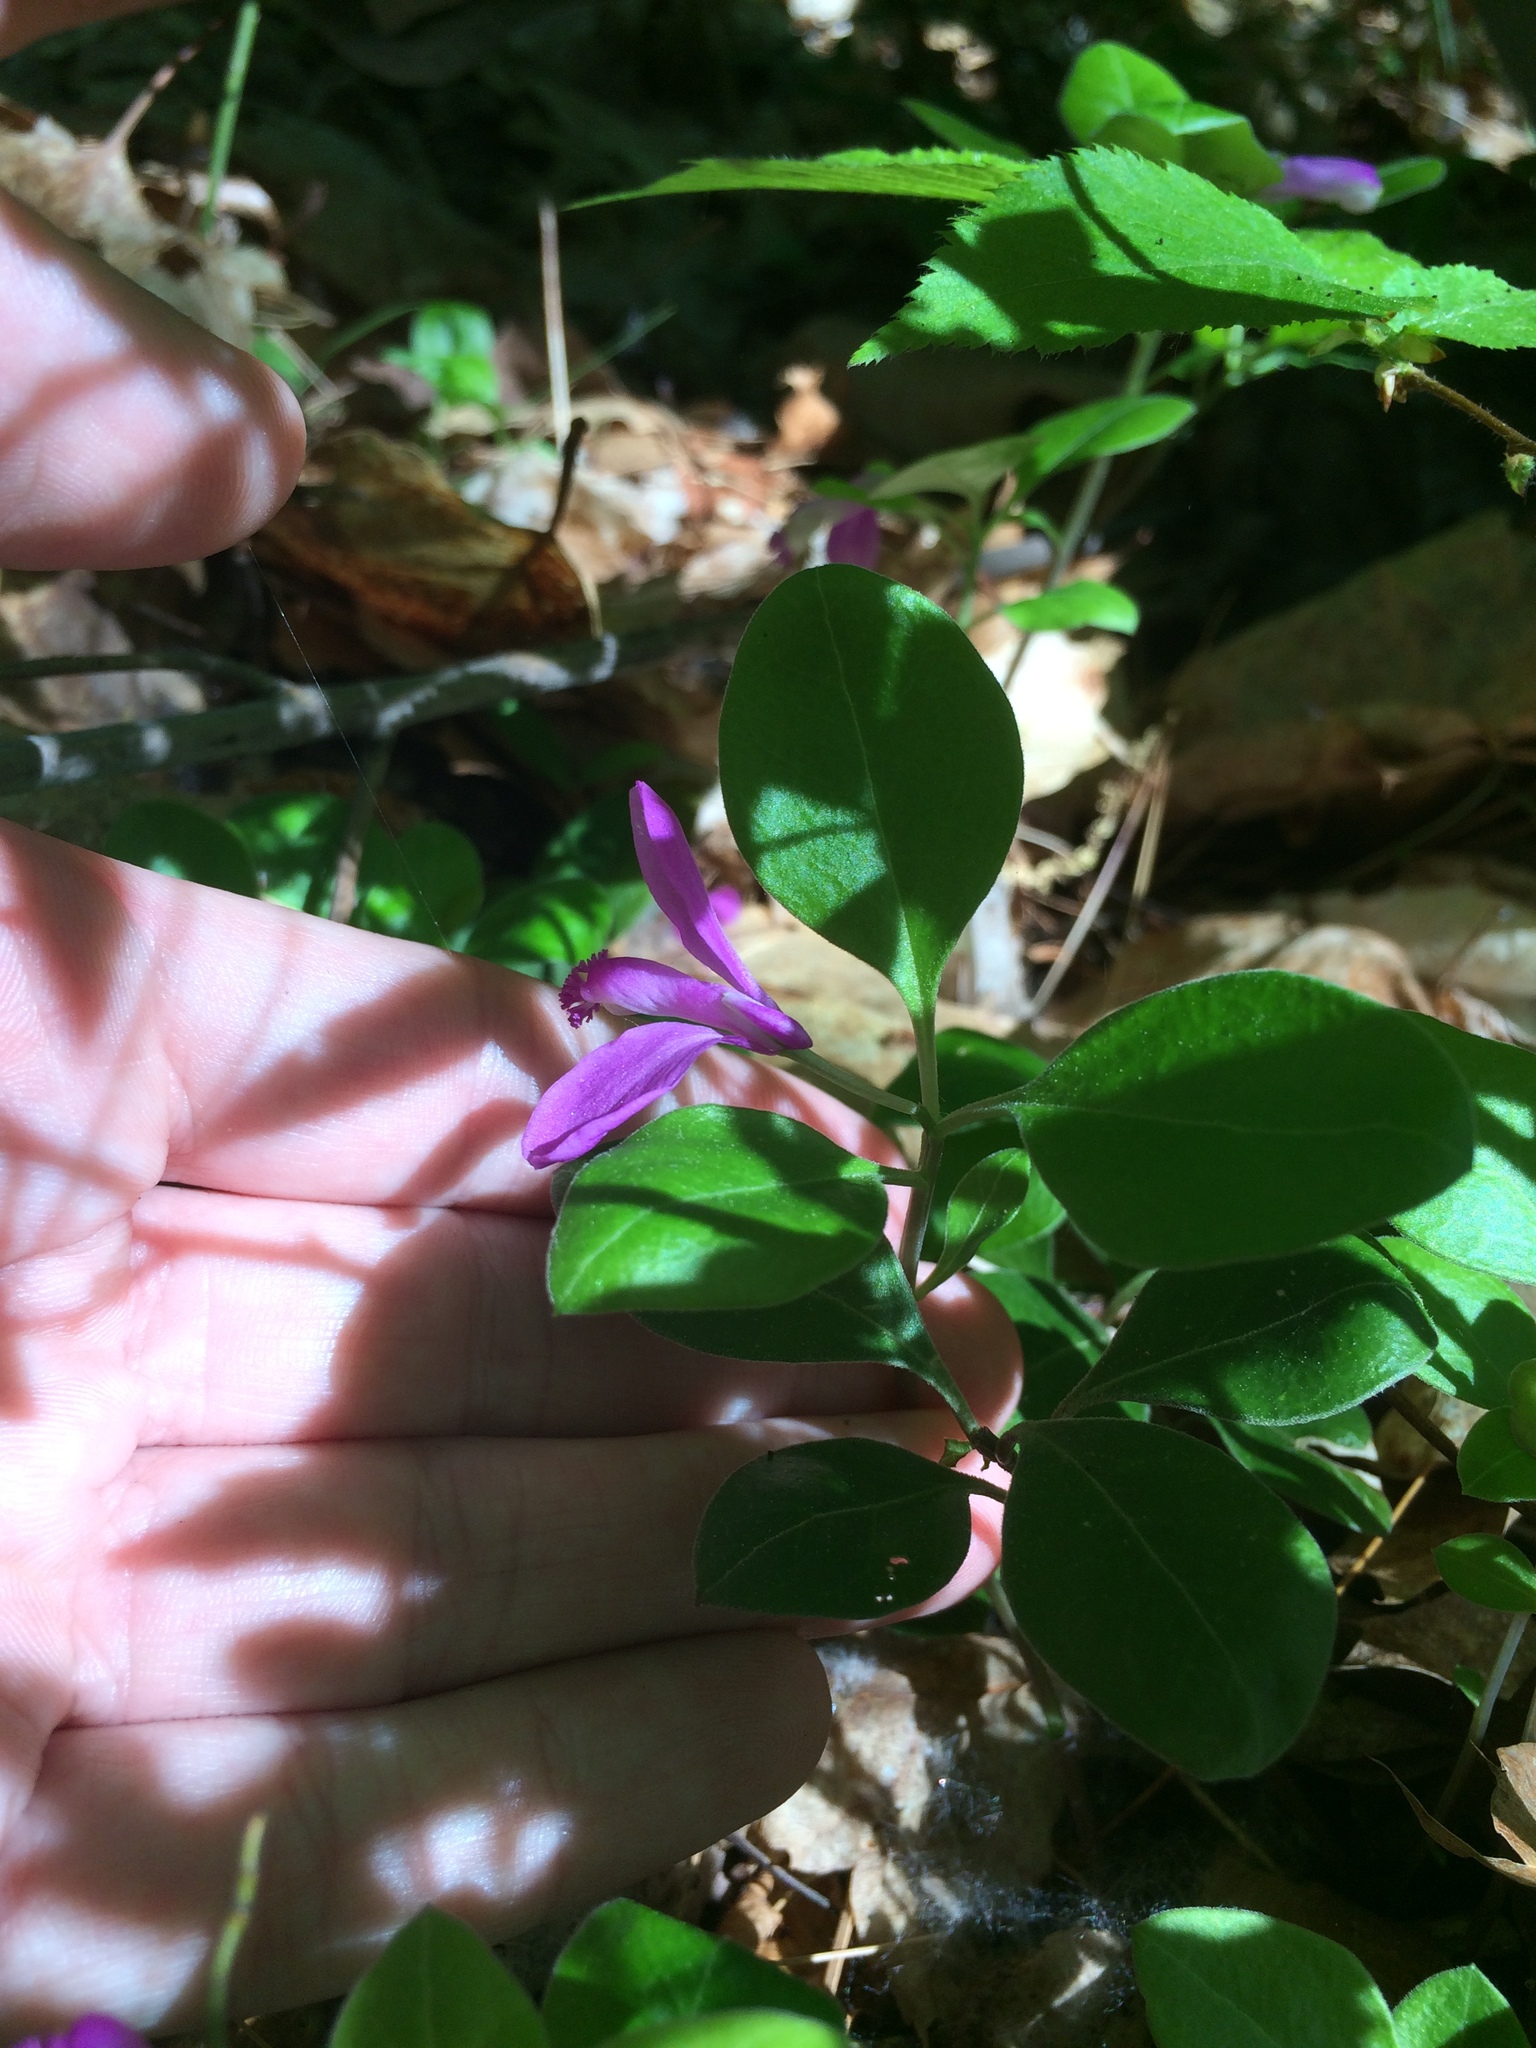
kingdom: Plantae
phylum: Tracheophyta
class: Magnoliopsida
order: Fabales
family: Polygalaceae
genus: Polygaloides
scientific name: Polygaloides paucifolia
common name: Bird-on-the-wing
